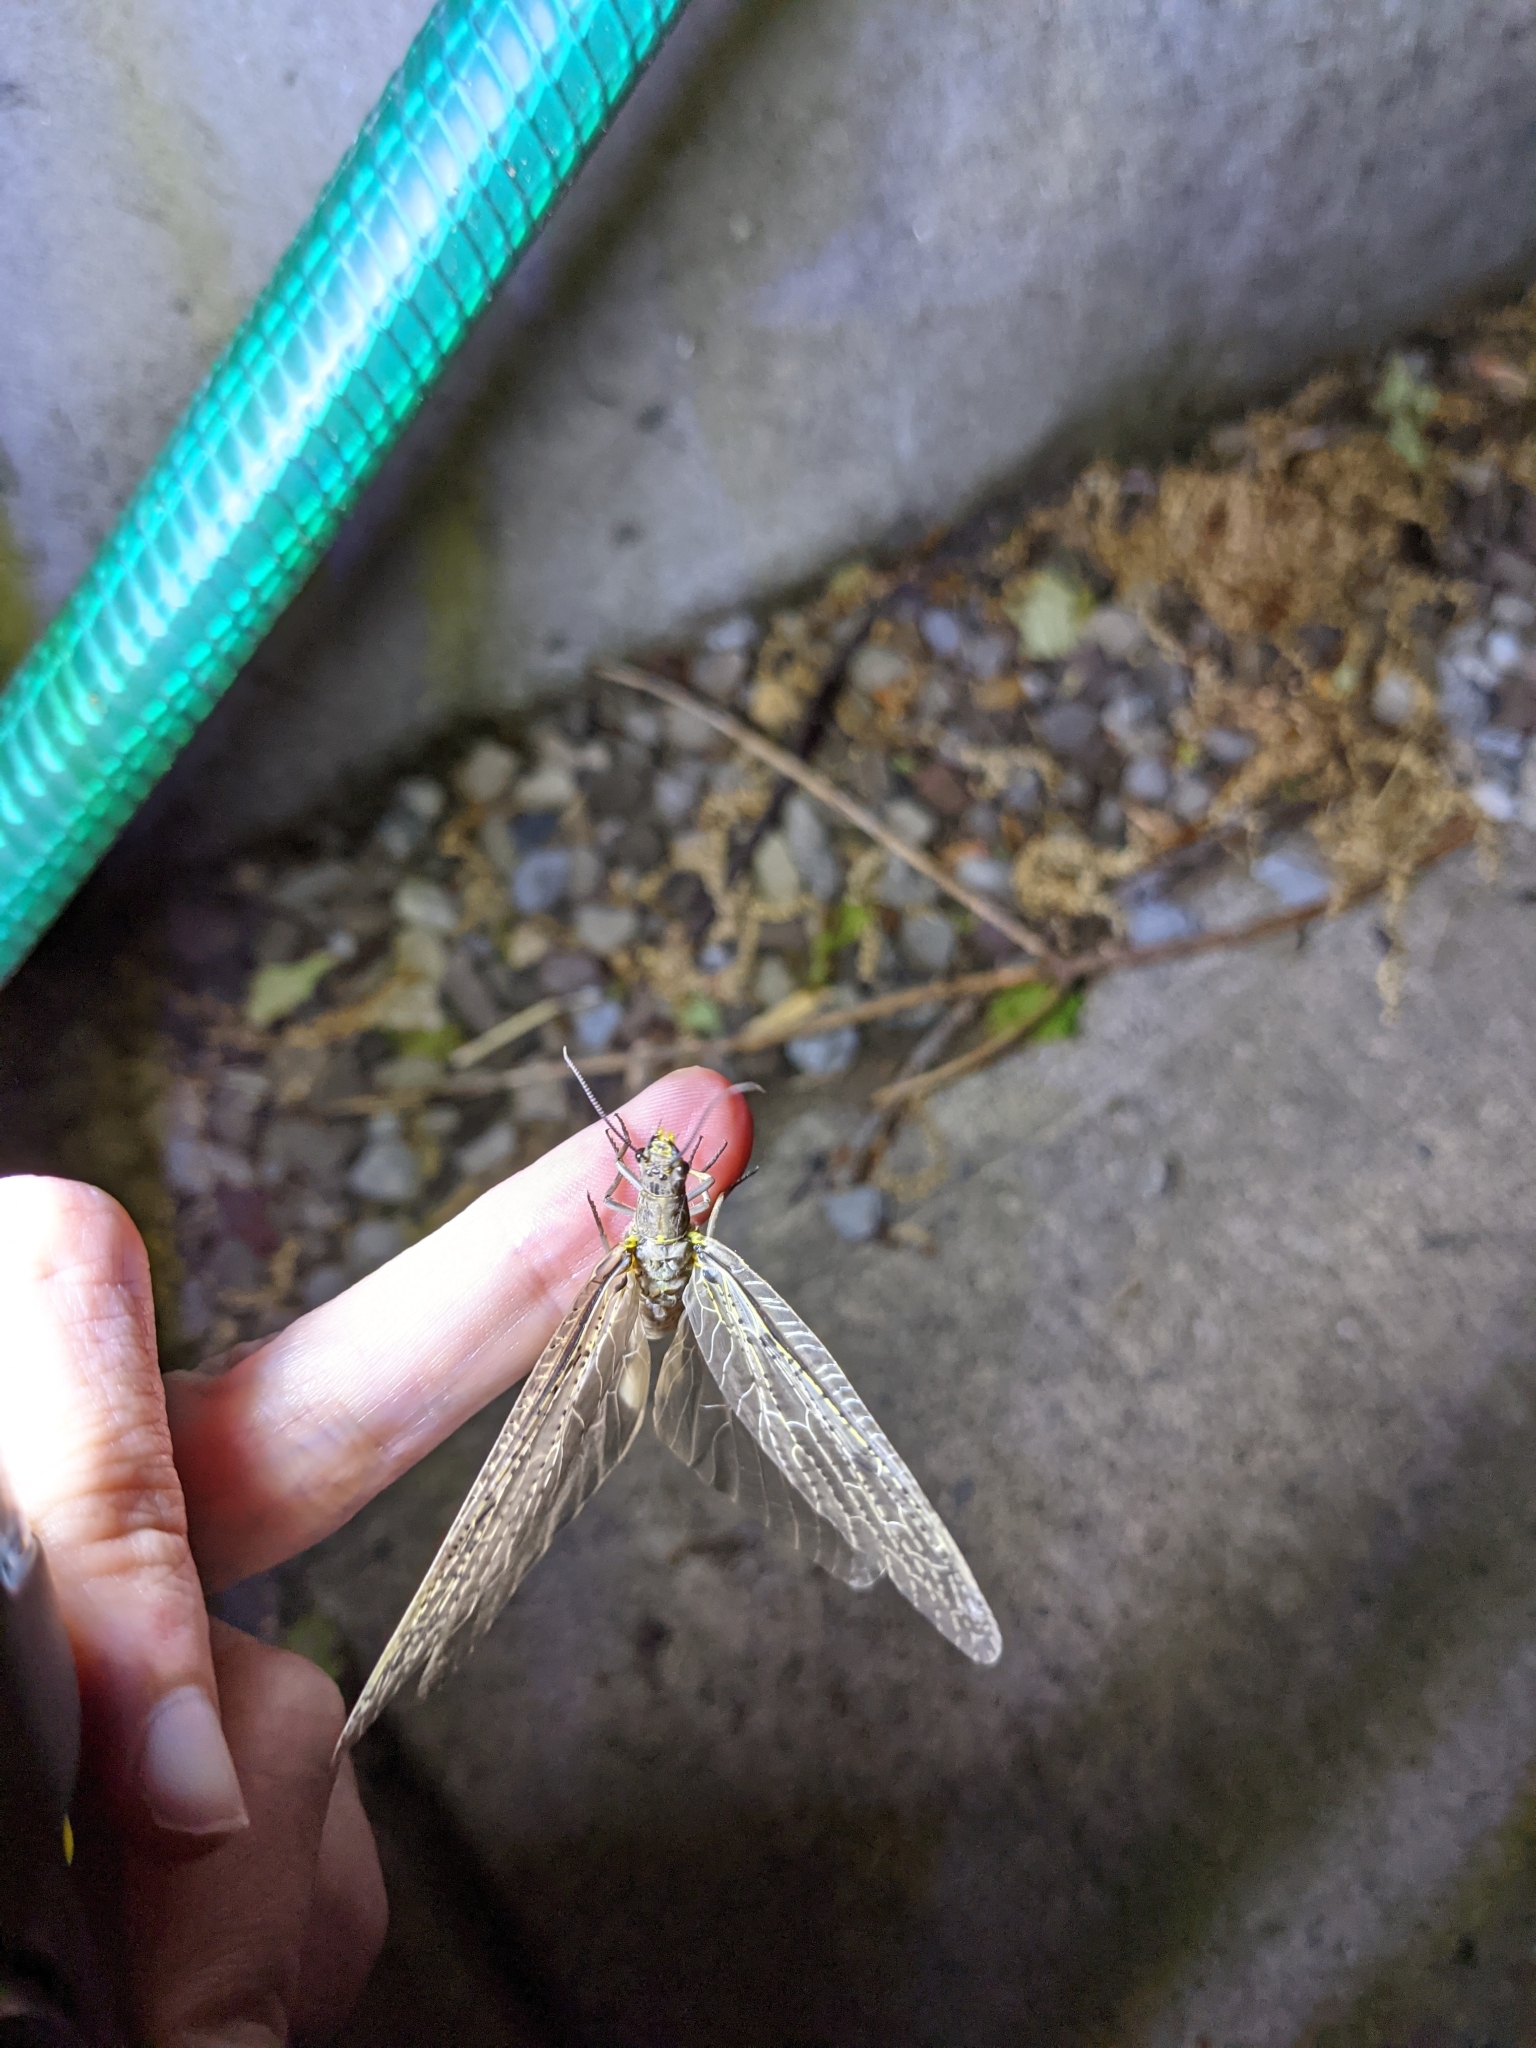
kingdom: Animalia
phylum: Arthropoda
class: Insecta
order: Megaloptera
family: Corydalidae
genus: Chauliodes
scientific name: Chauliodes rastricornis
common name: Spring fishfly
